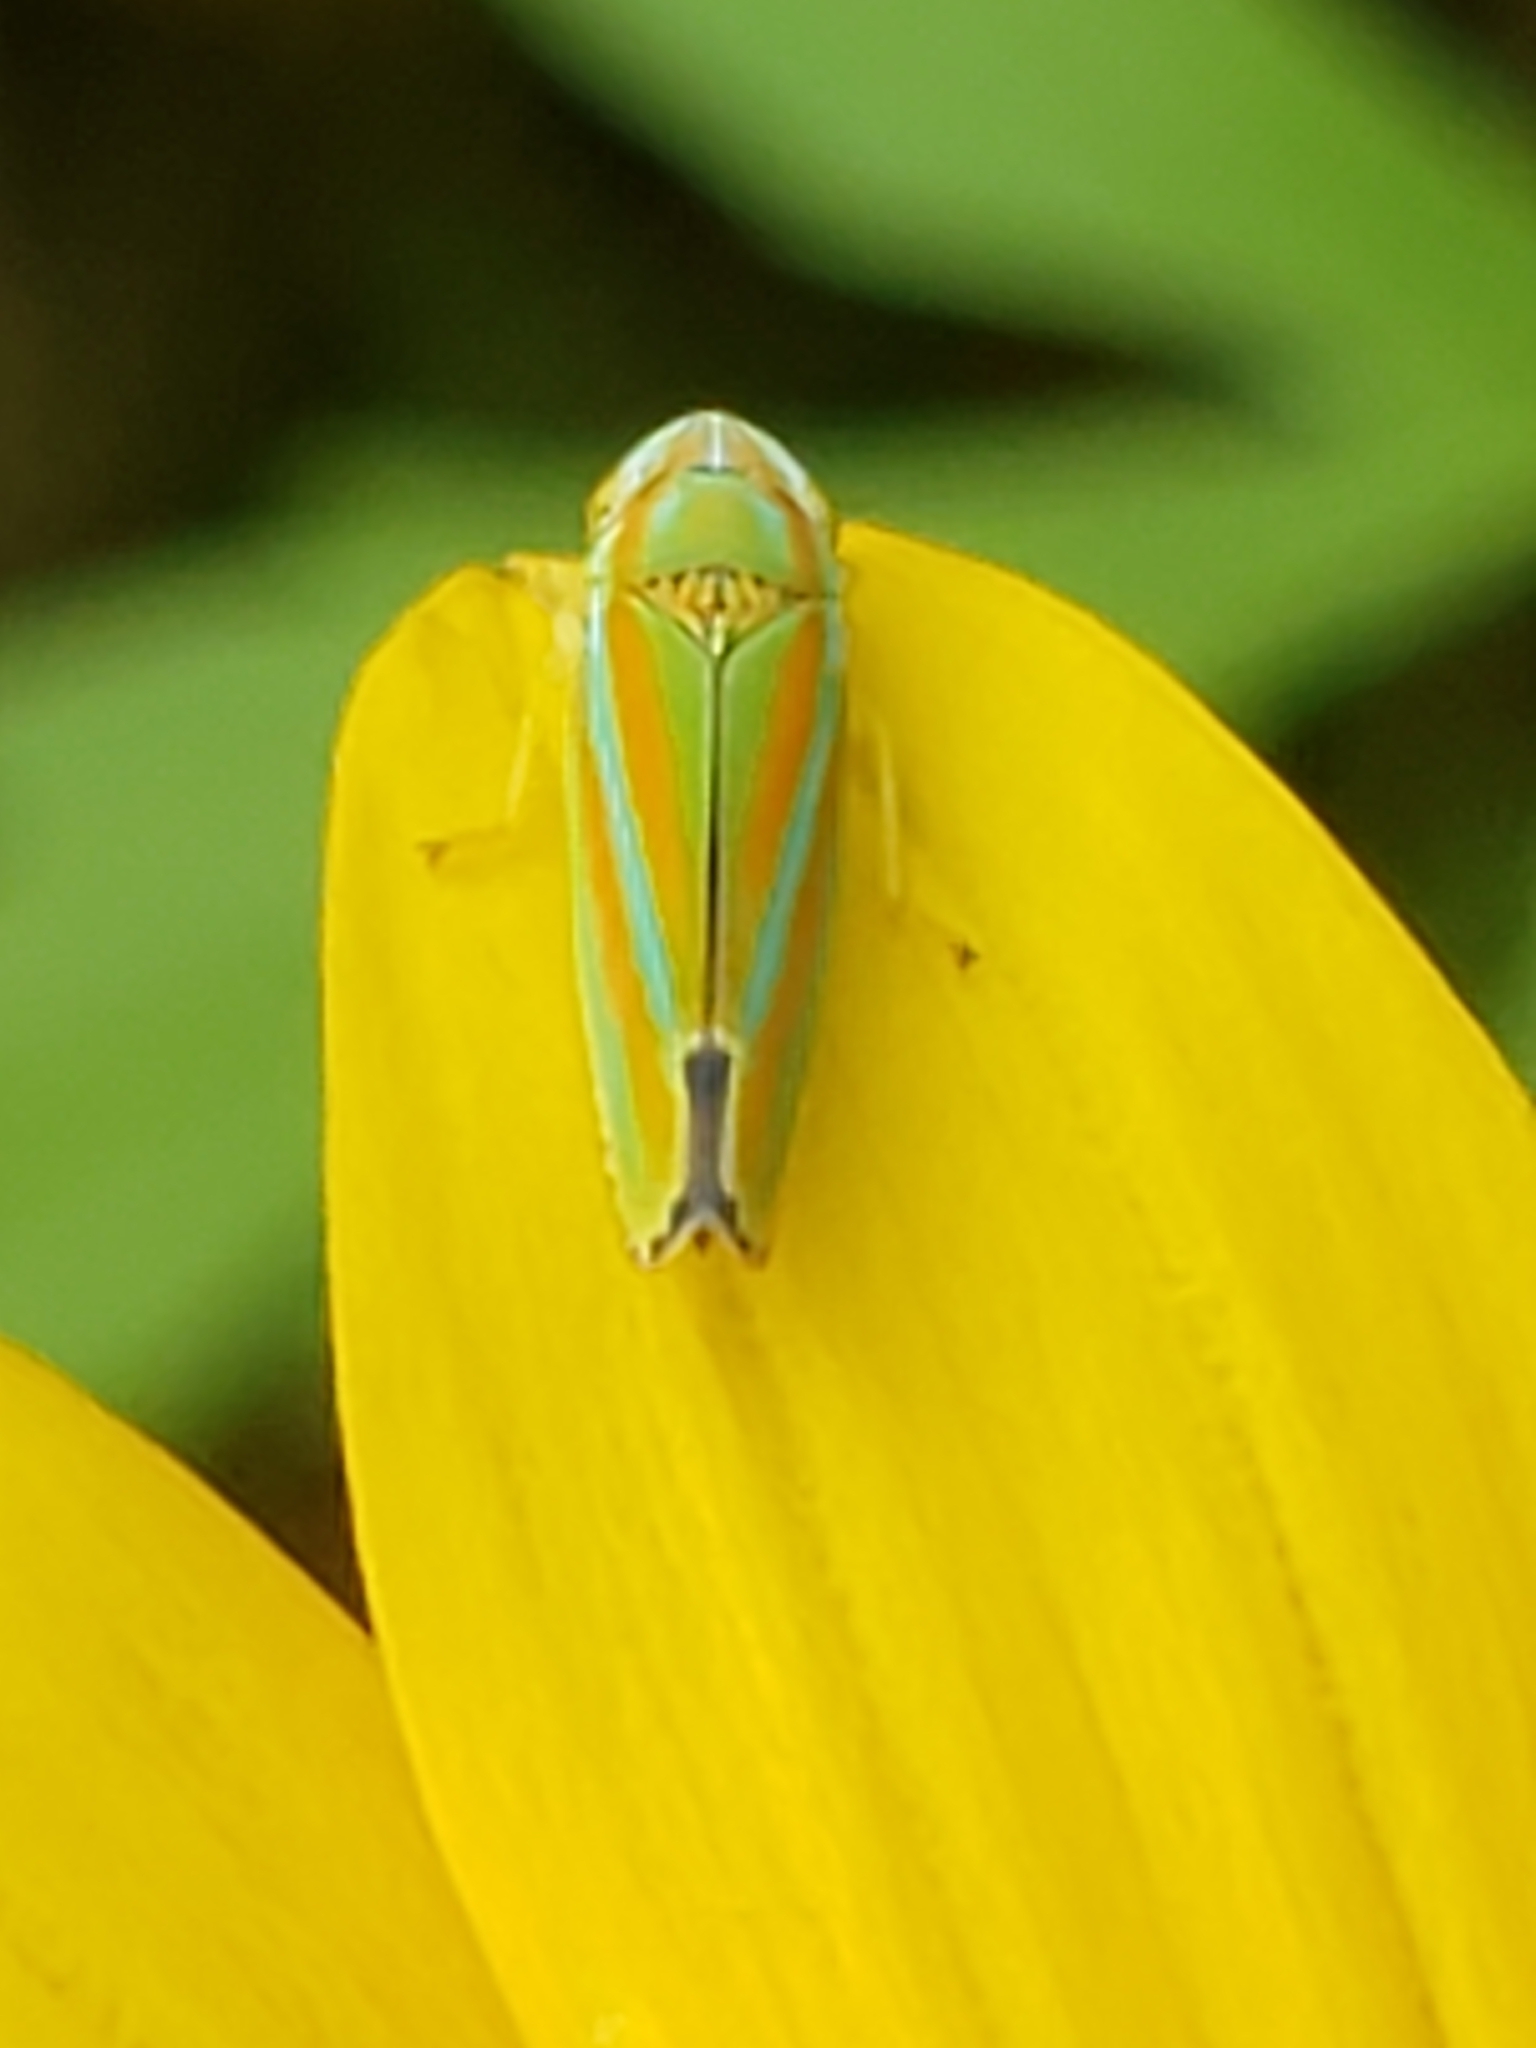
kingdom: Animalia
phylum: Arthropoda
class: Insecta
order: Hemiptera
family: Cicadellidae
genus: Graphocephala
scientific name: Graphocephala versuta
